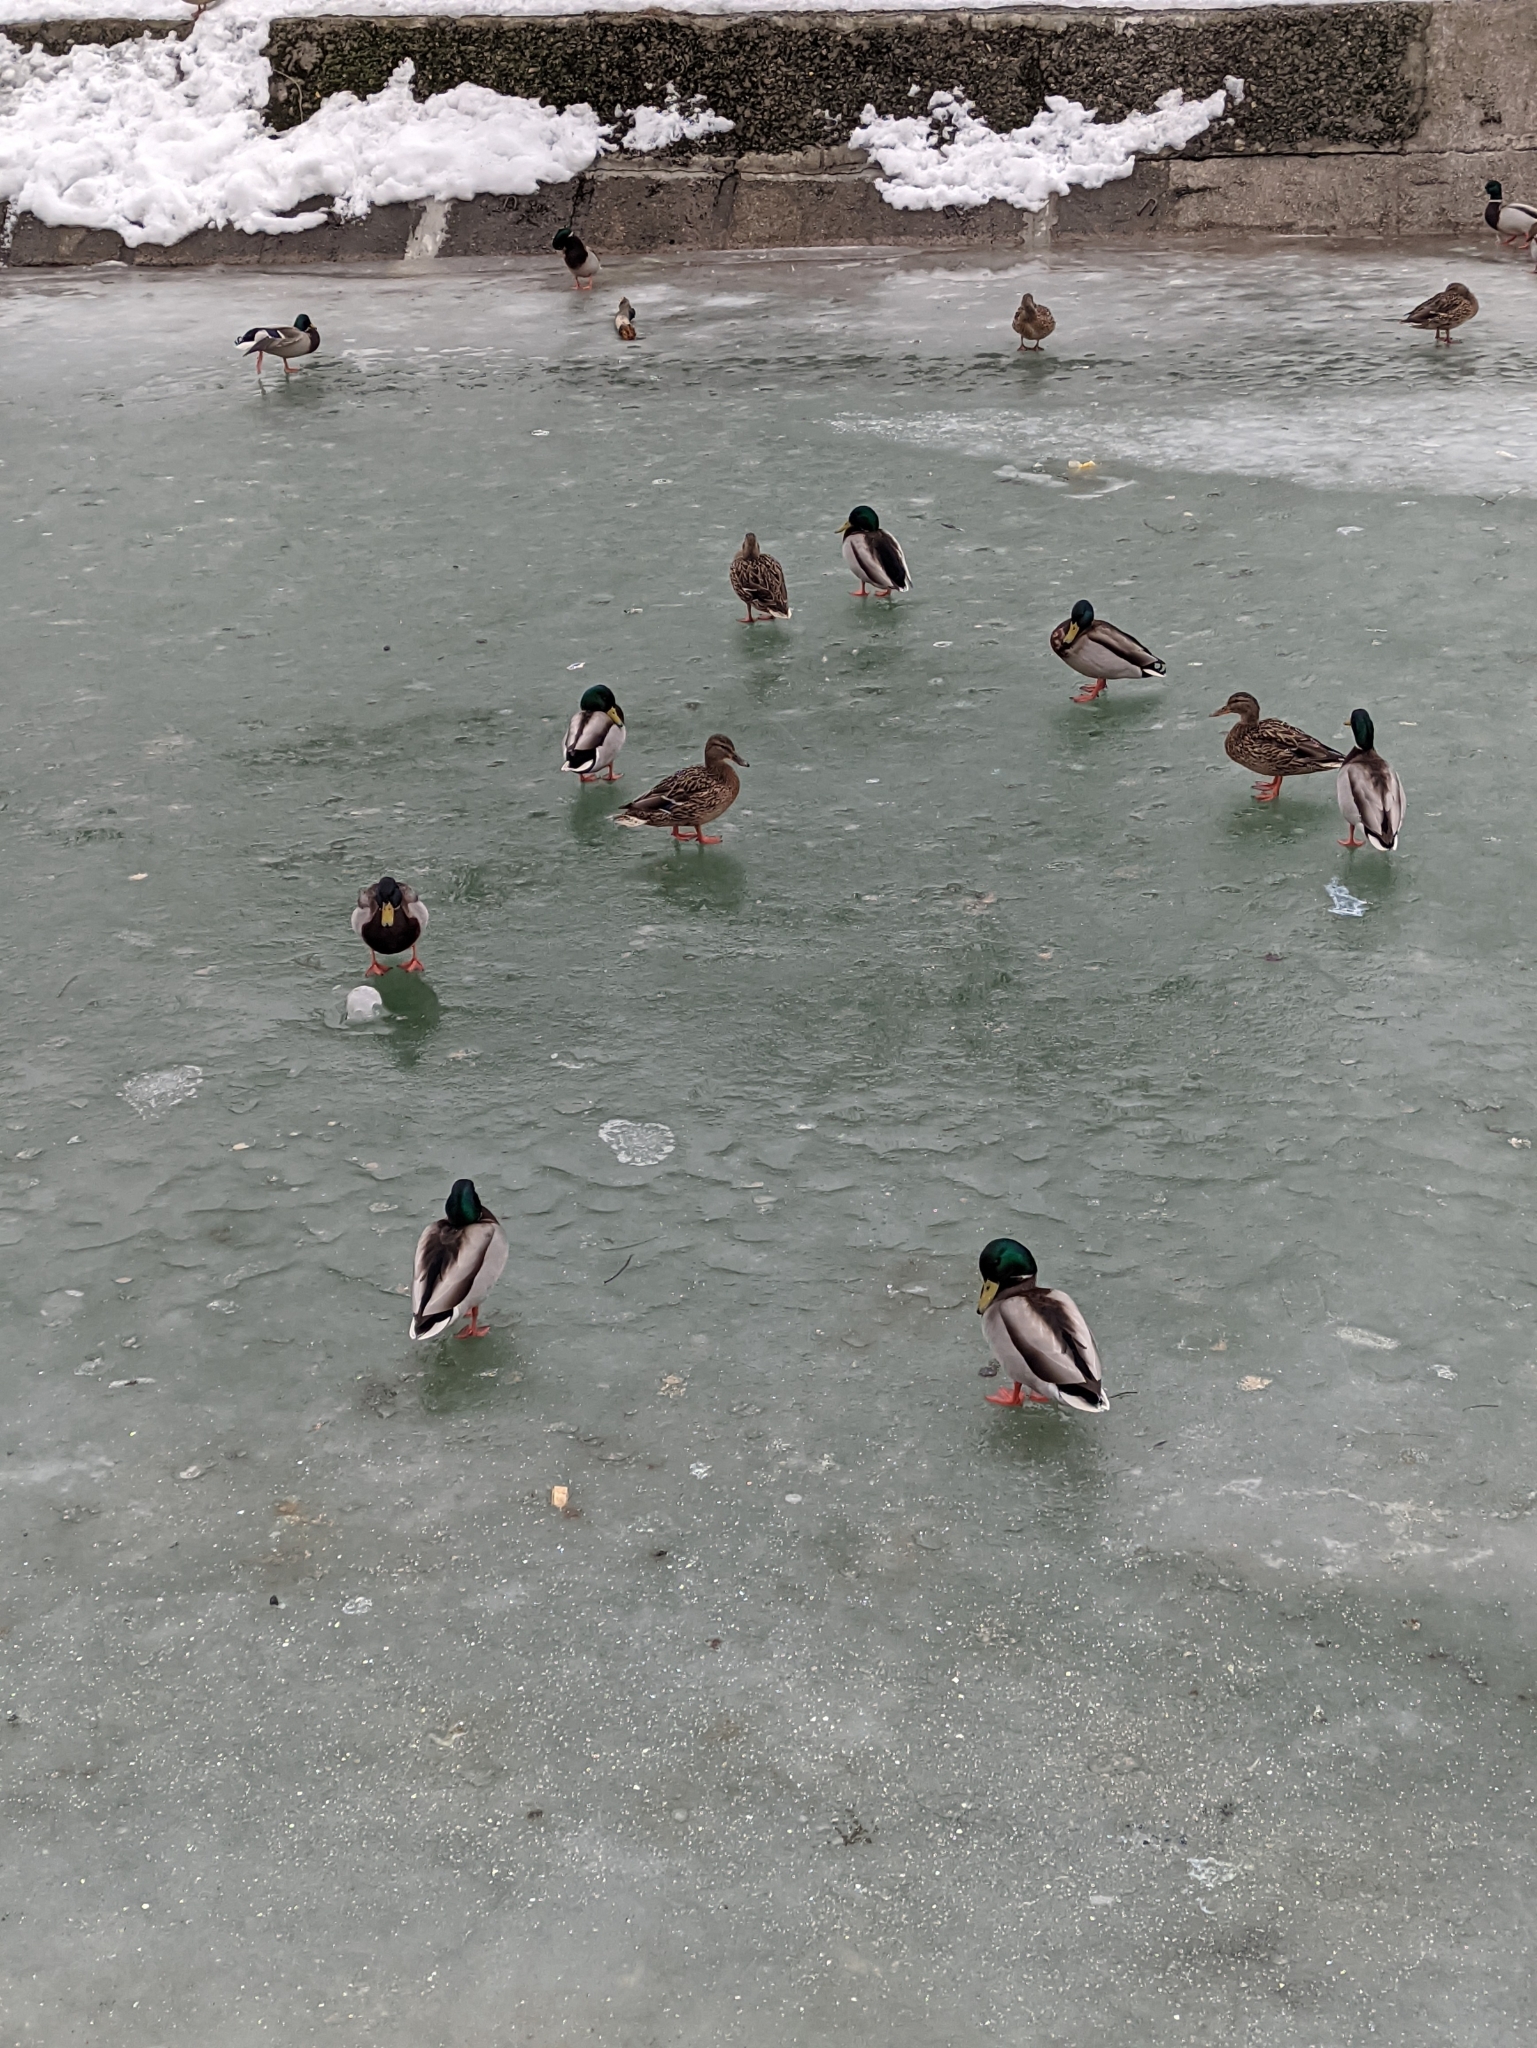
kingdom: Animalia
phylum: Chordata
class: Aves
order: Anseriformes
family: Anatidae
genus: Anas
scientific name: Anas platyrhynchos
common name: Mallard
